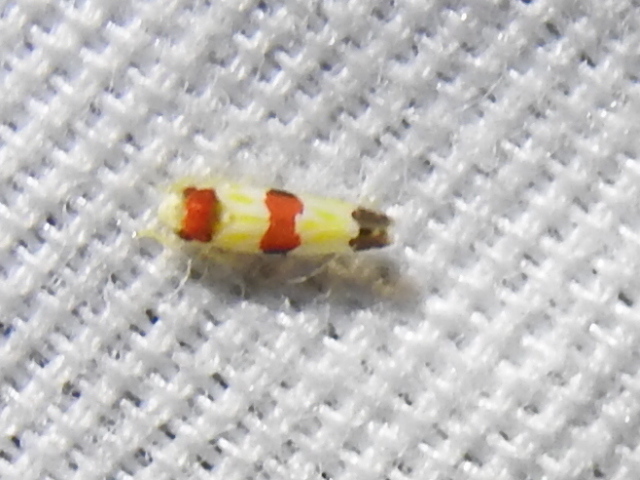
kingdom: Animalia
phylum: Arthropoda
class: Insecta
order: Hemiptera
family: Cicadellidae
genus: Erythroneura
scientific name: Erythroneura diva
